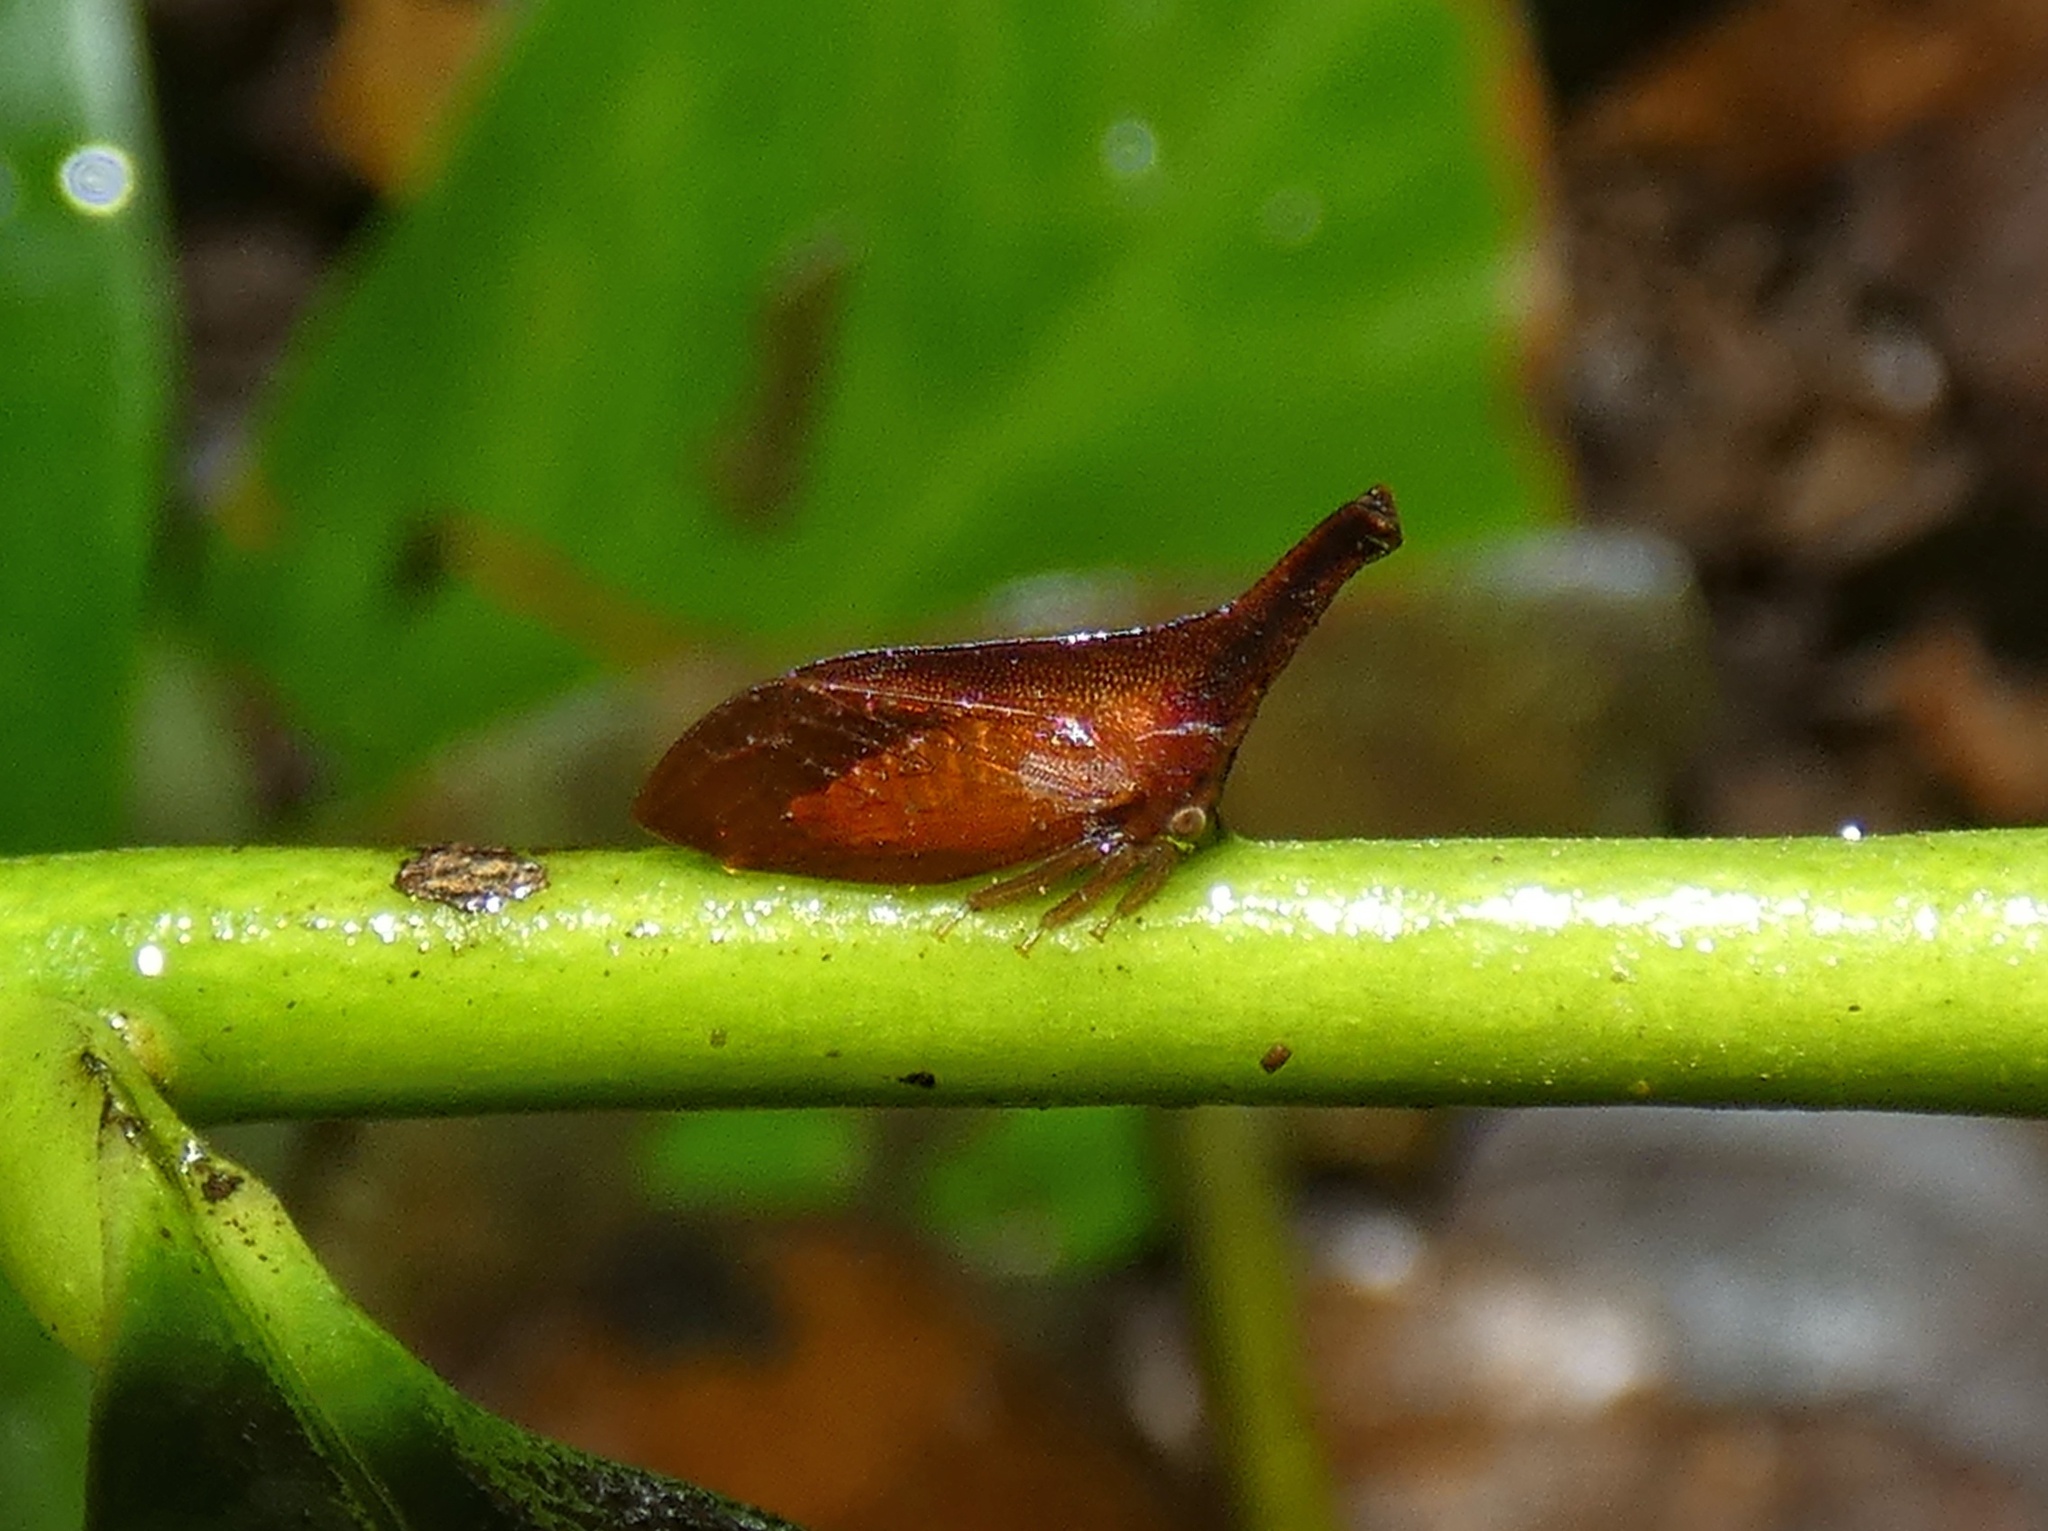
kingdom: Animalia
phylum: Arthropoda
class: Insecta
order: Hemiptera
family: Membracidae
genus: Lycoderes
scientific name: Lycoderes phasianus
